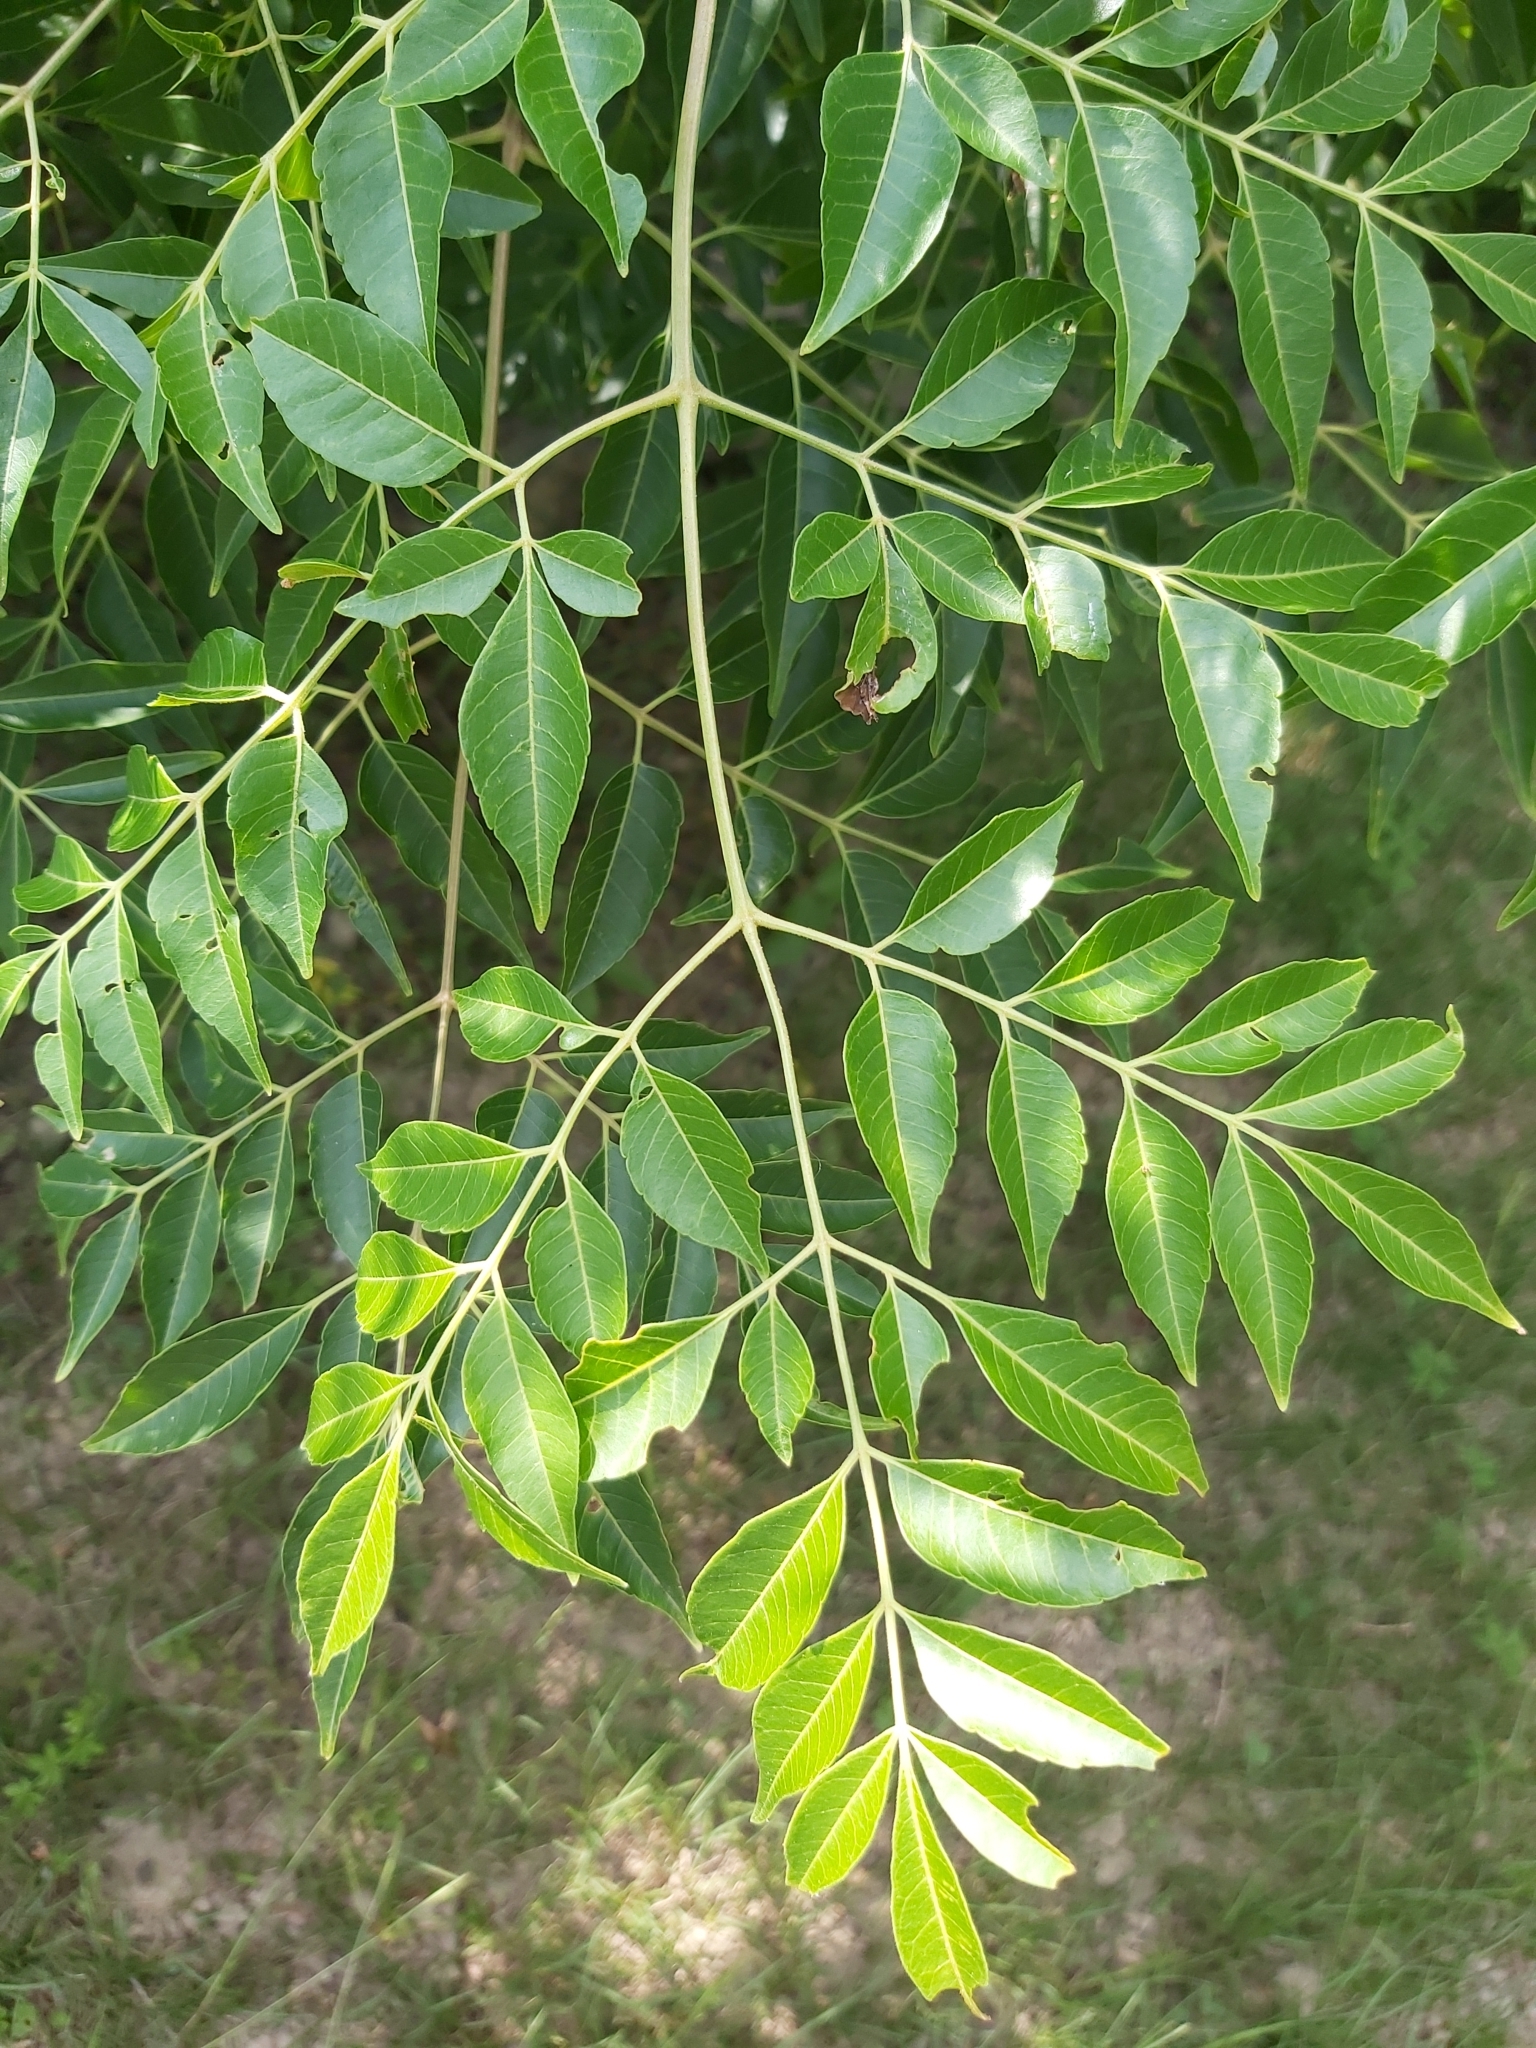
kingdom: Plantae
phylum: Tracheophyta
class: Magnoliopsida
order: Sapindales
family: Meliaceae
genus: Melia
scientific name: Melia azedarach
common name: Chinaberrytree
